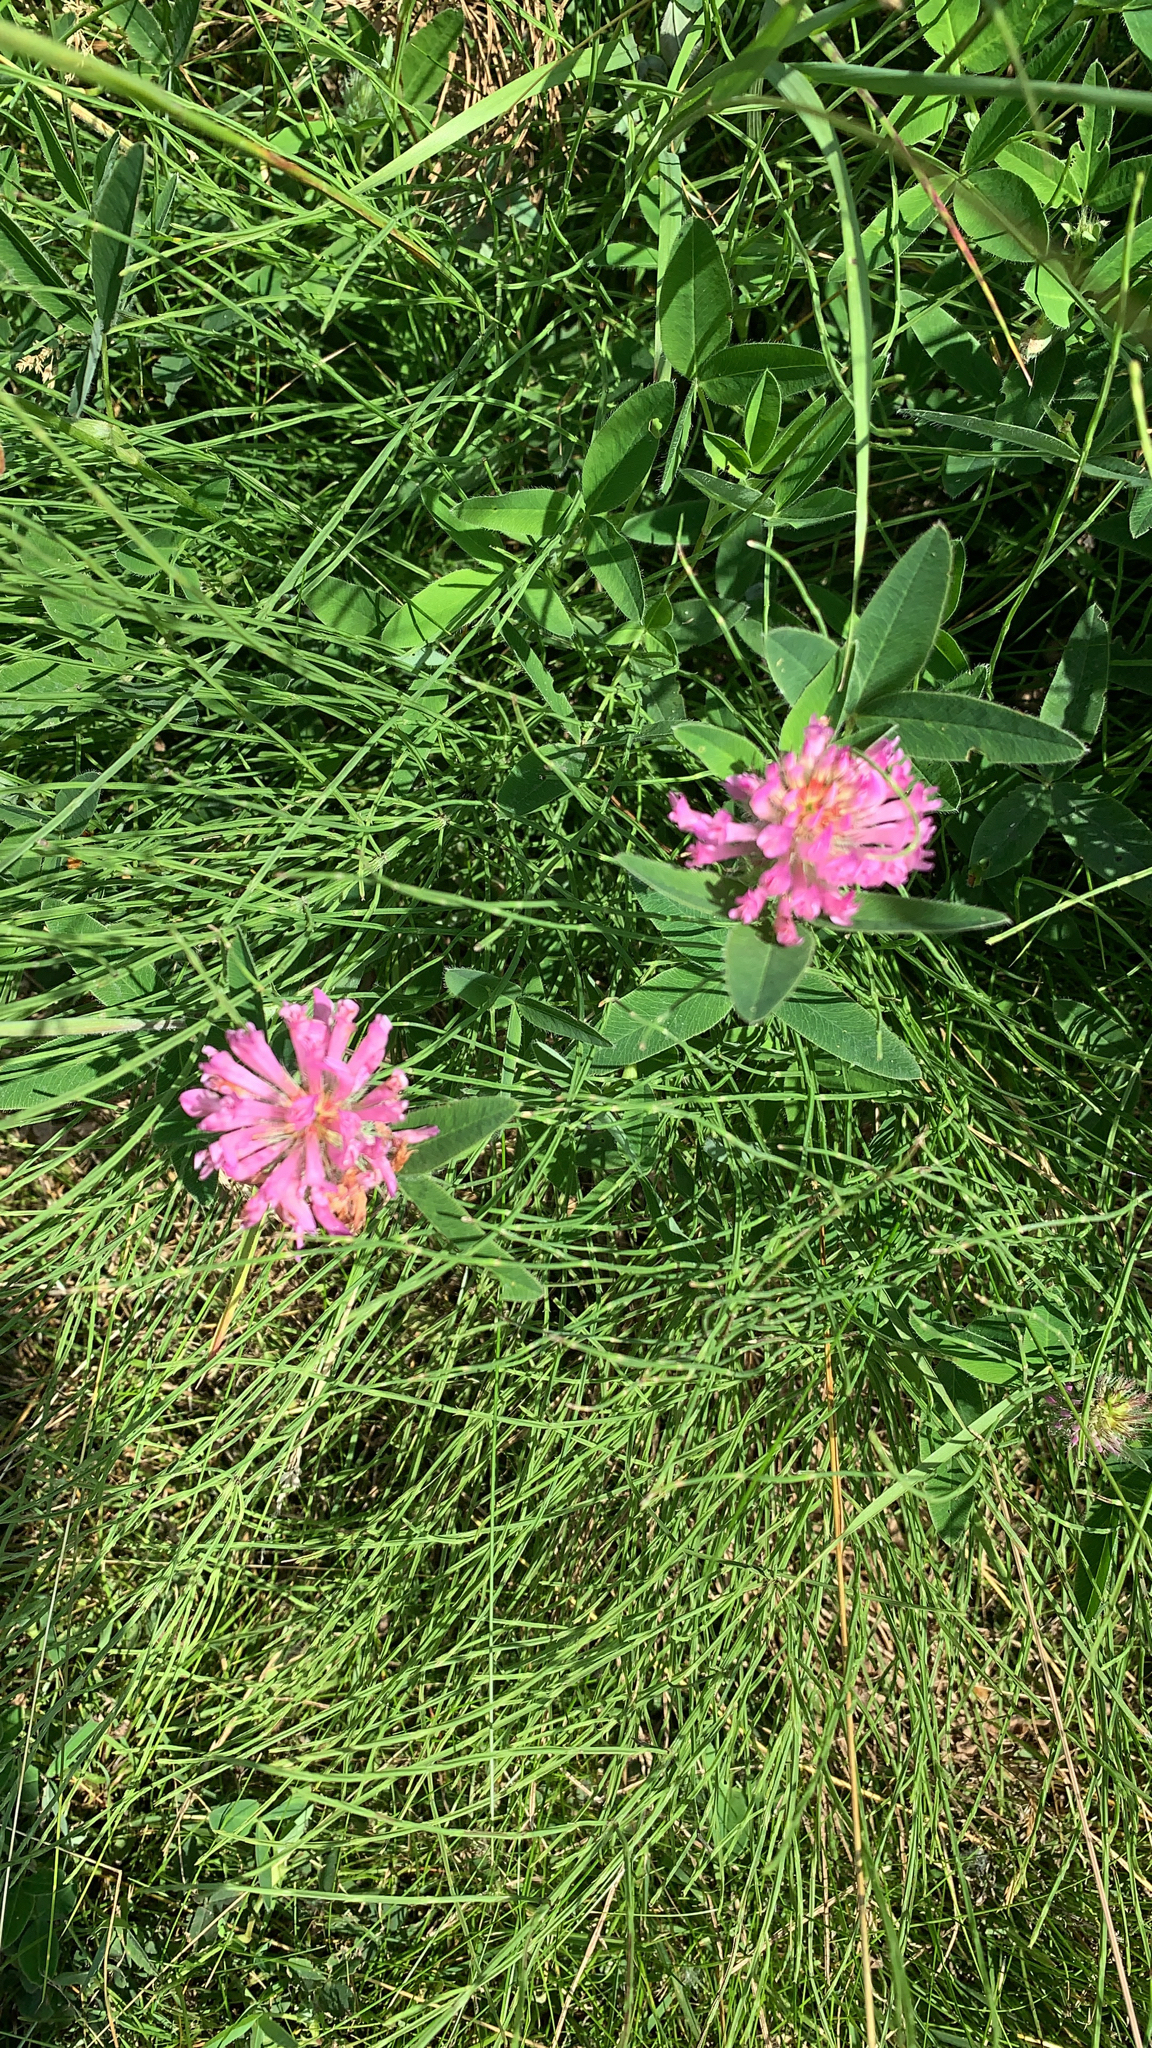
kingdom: Plantae
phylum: Tracheophyta
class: Magnoliopsida
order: Fabales
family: Fabaceae
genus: Trifolium
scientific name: Trifolium medium
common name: Zigzag clover
